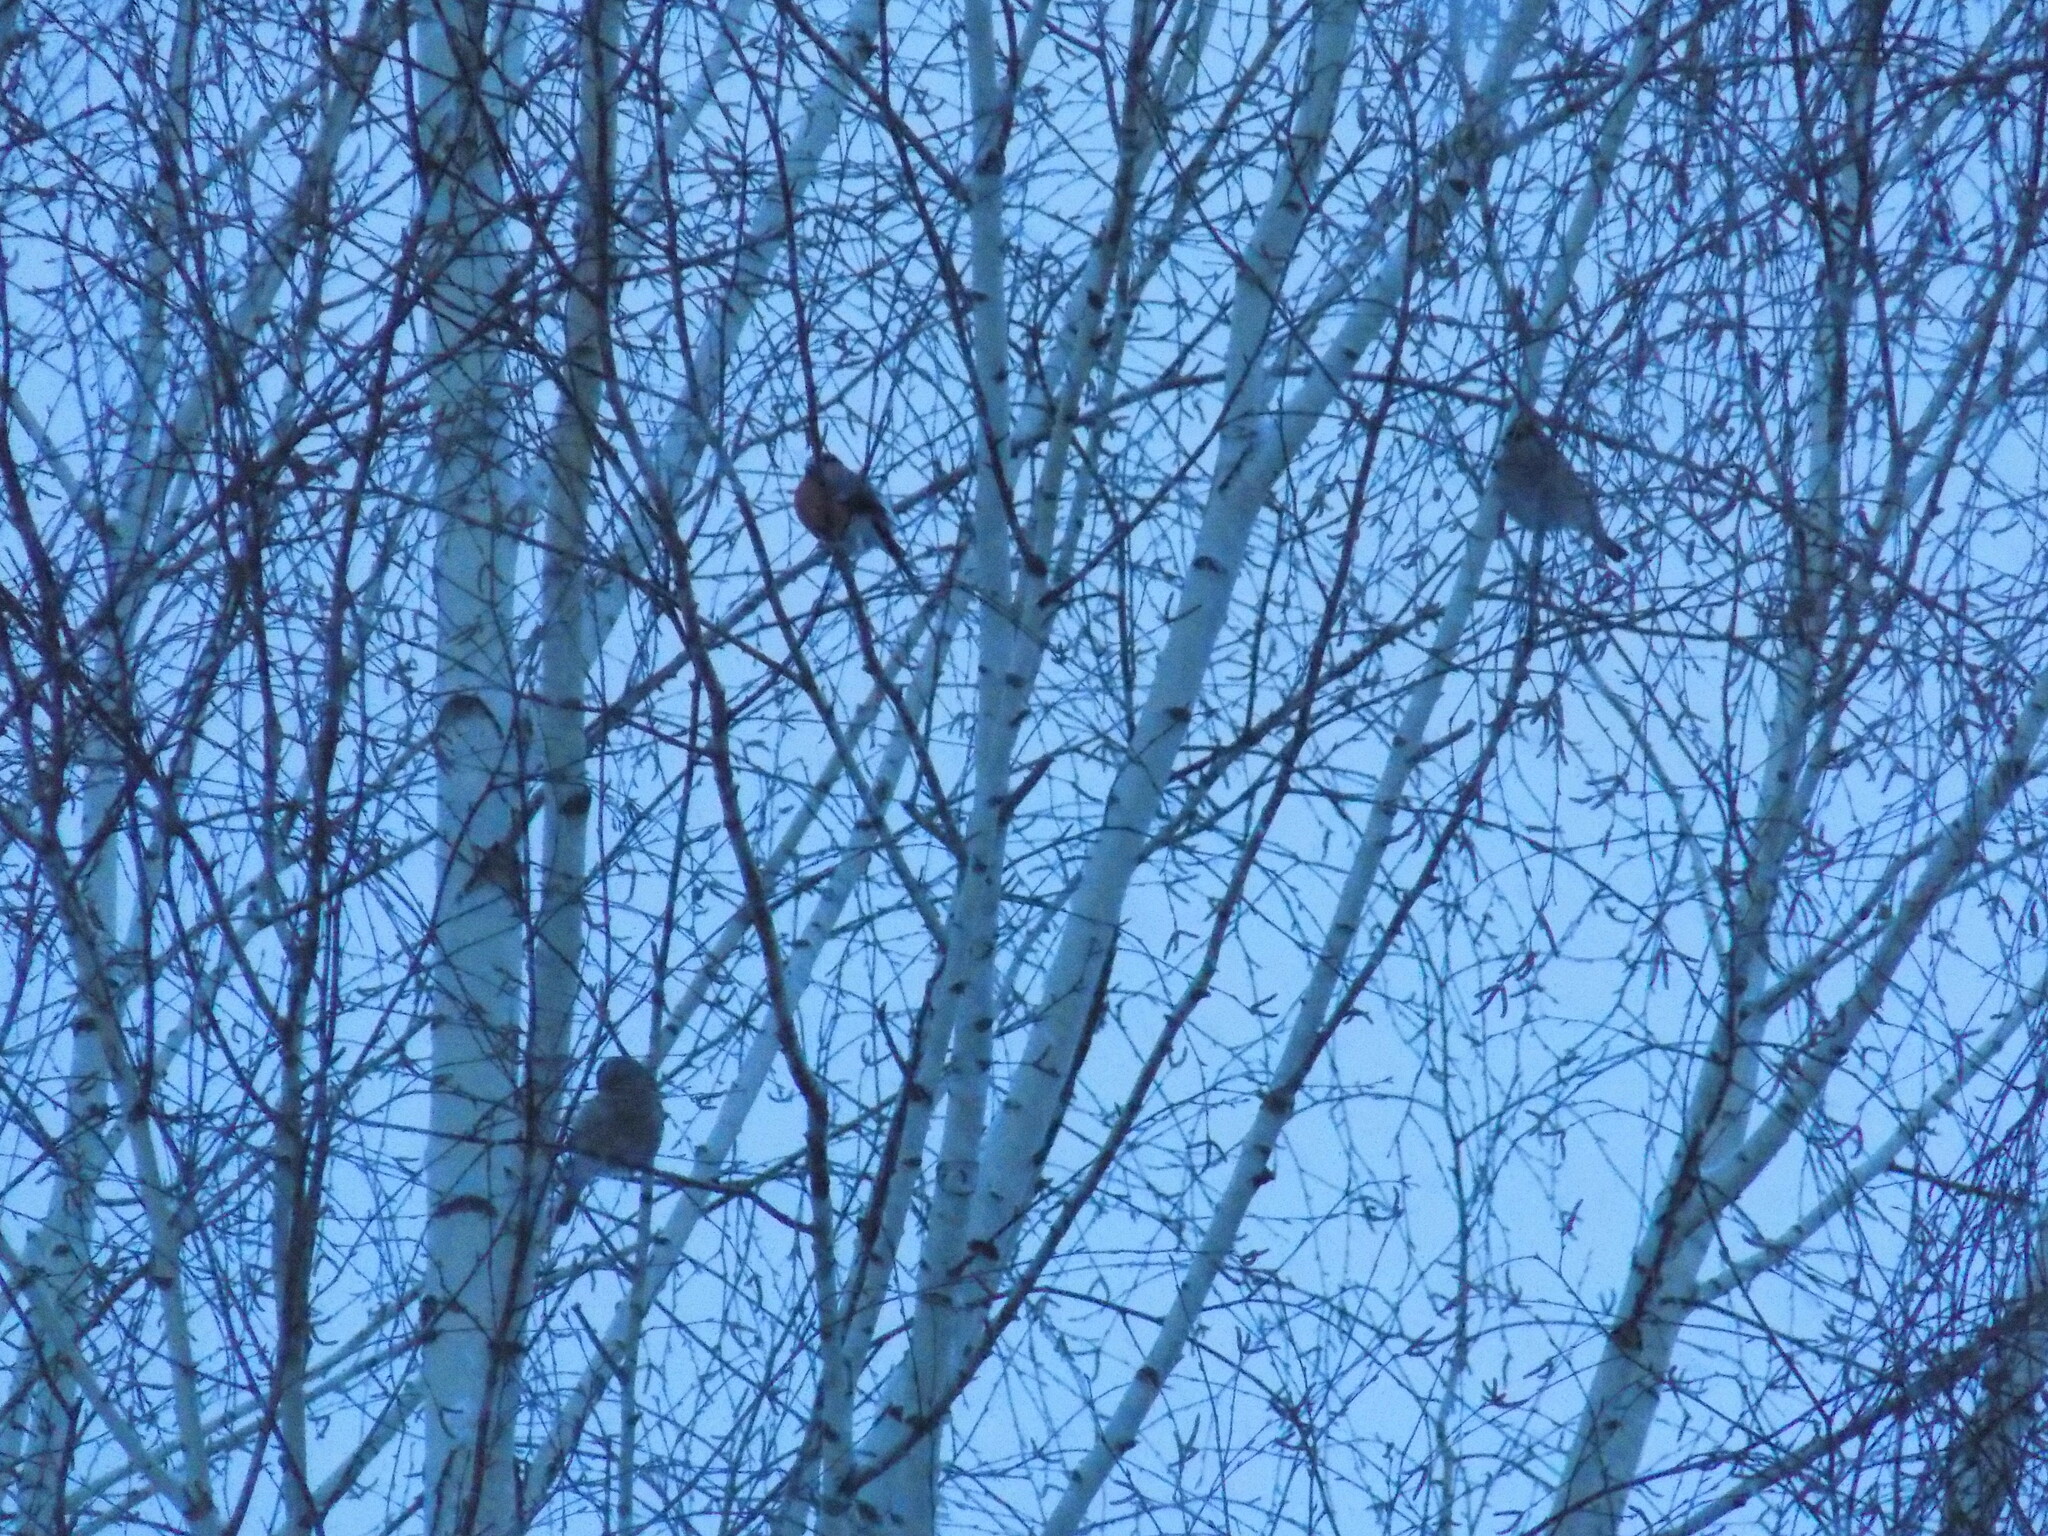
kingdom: Animalia
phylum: Chordata
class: Aves
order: Passeriformes
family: Fringillidae
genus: Pyrrhula
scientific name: Pyrrhula pyrrhula
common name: Eurasian bullfinch
